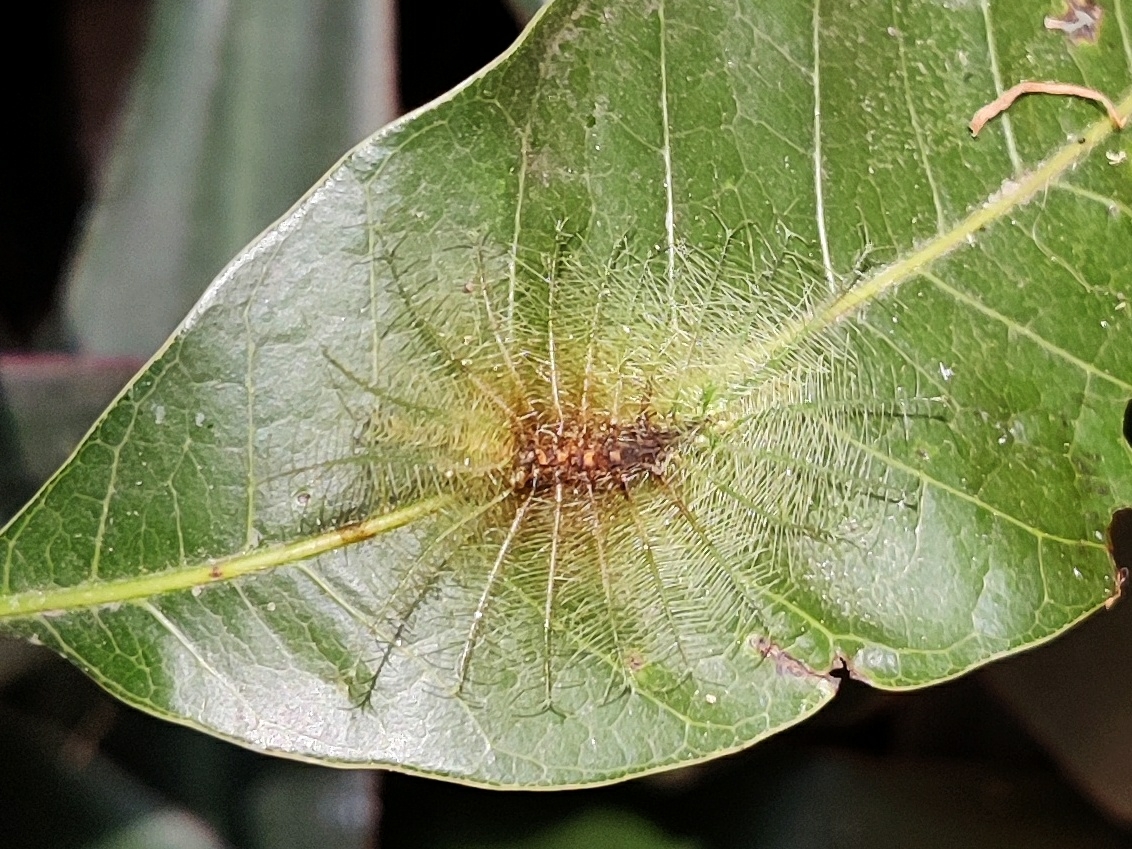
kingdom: Animalia
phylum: Arthropoda
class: Insecta
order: Lepidoptera
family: Nymphalidae
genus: Euthalia
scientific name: Euthalia aconthea
